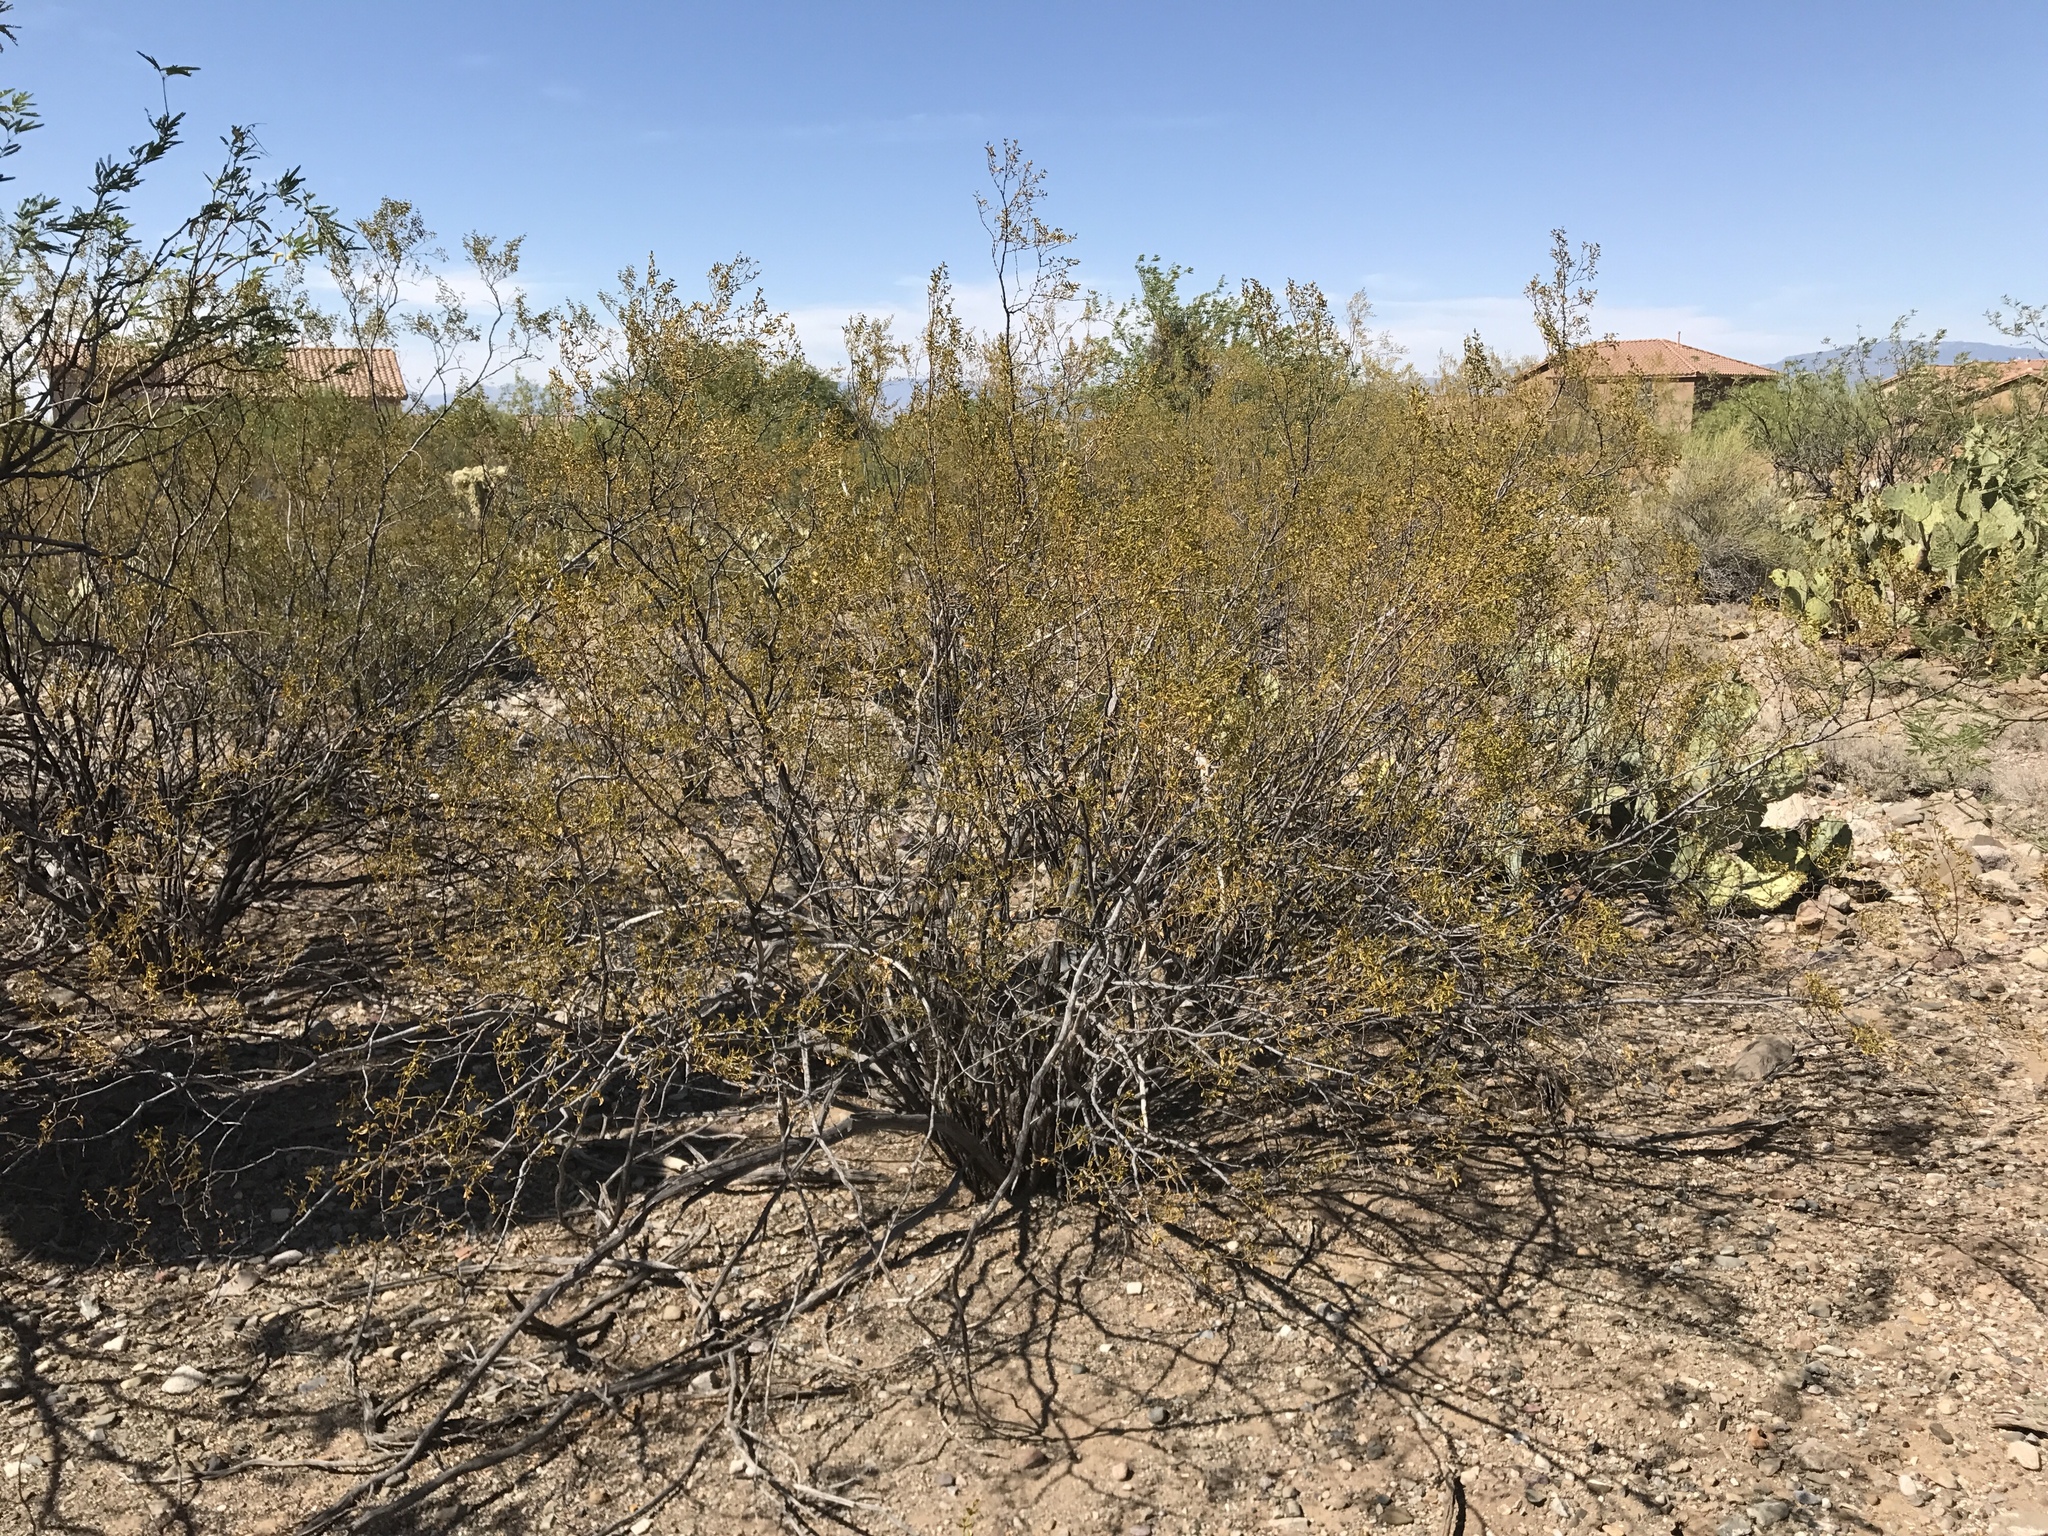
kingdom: Plantae
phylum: Tracheophyta
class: Magnoliopsida
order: Zygophyllales
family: Zygophyllaceae
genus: Larrea
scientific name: Larrea tridentata
